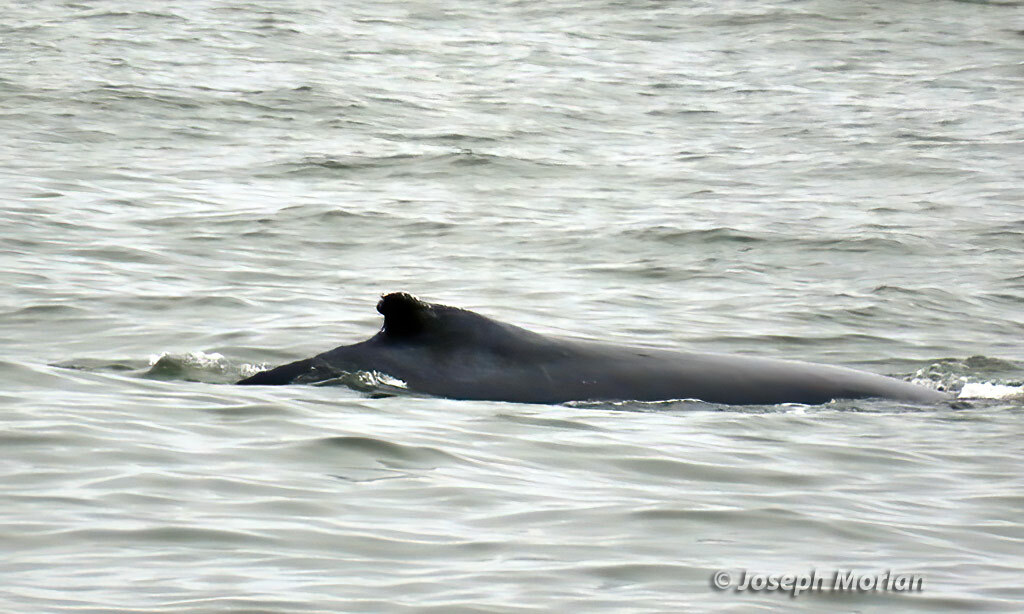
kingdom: Animalia
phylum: Chordata
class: Mammalia
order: Cetacea
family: Balaenopteridae
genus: Megaptera
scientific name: Megaptera novaeangliae
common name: Humpback whale
